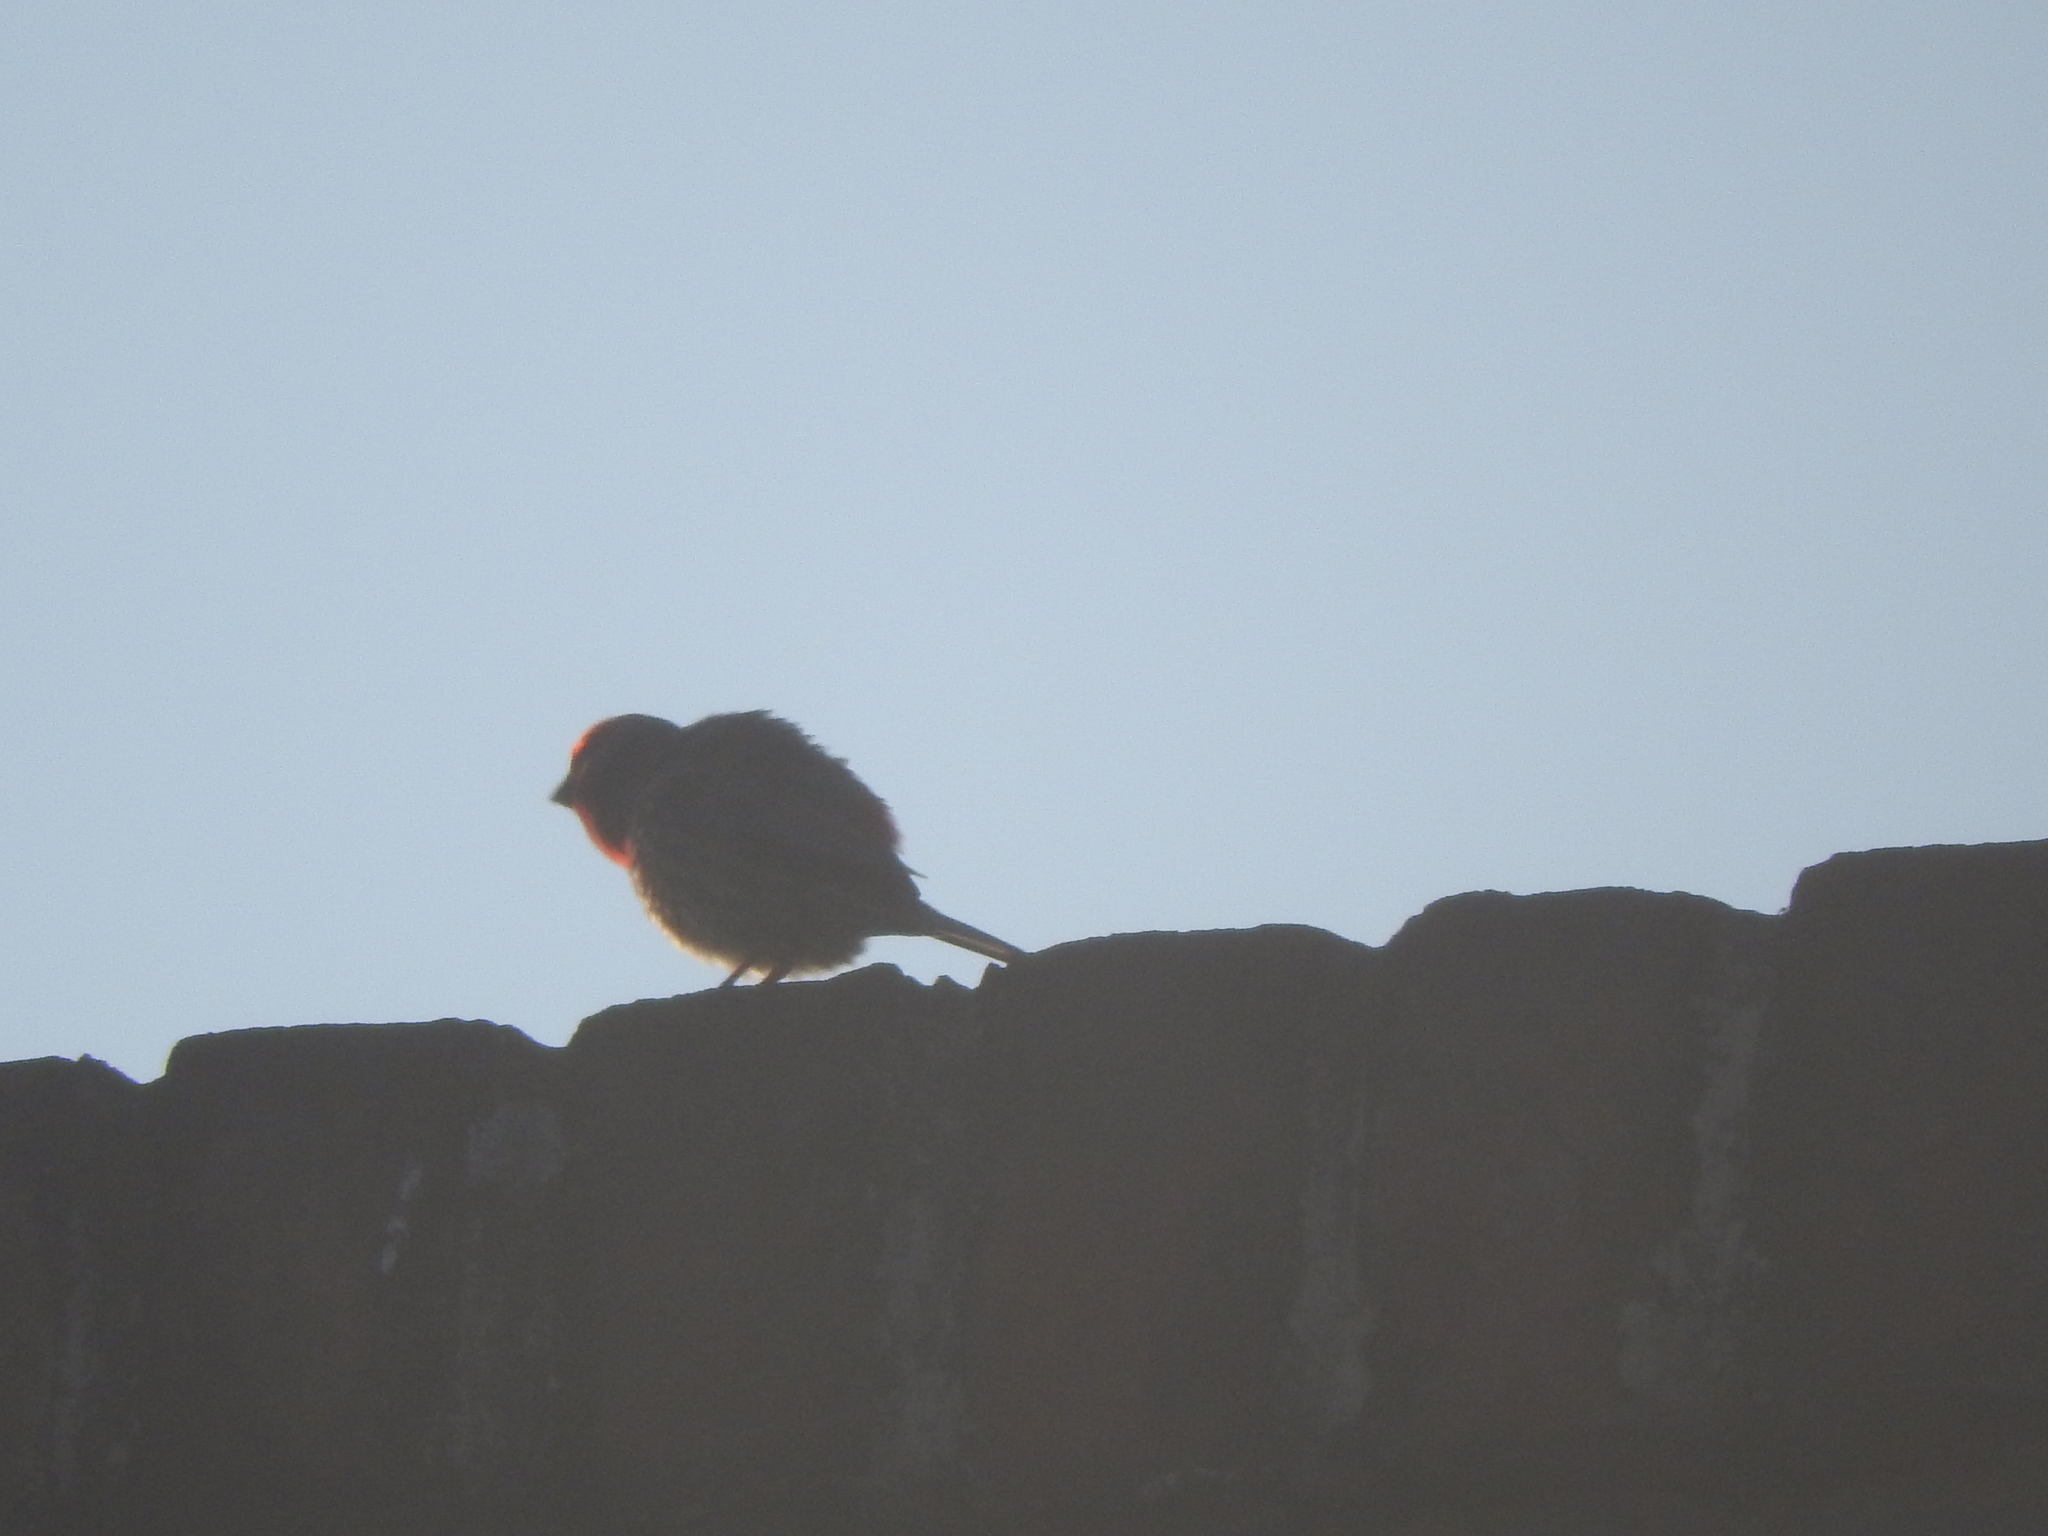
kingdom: Animalia
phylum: Chordata
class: Aves
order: Passeriformes
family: Fringillidae
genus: Haemorhous
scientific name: Haemorhous mexicanus
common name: House finch
